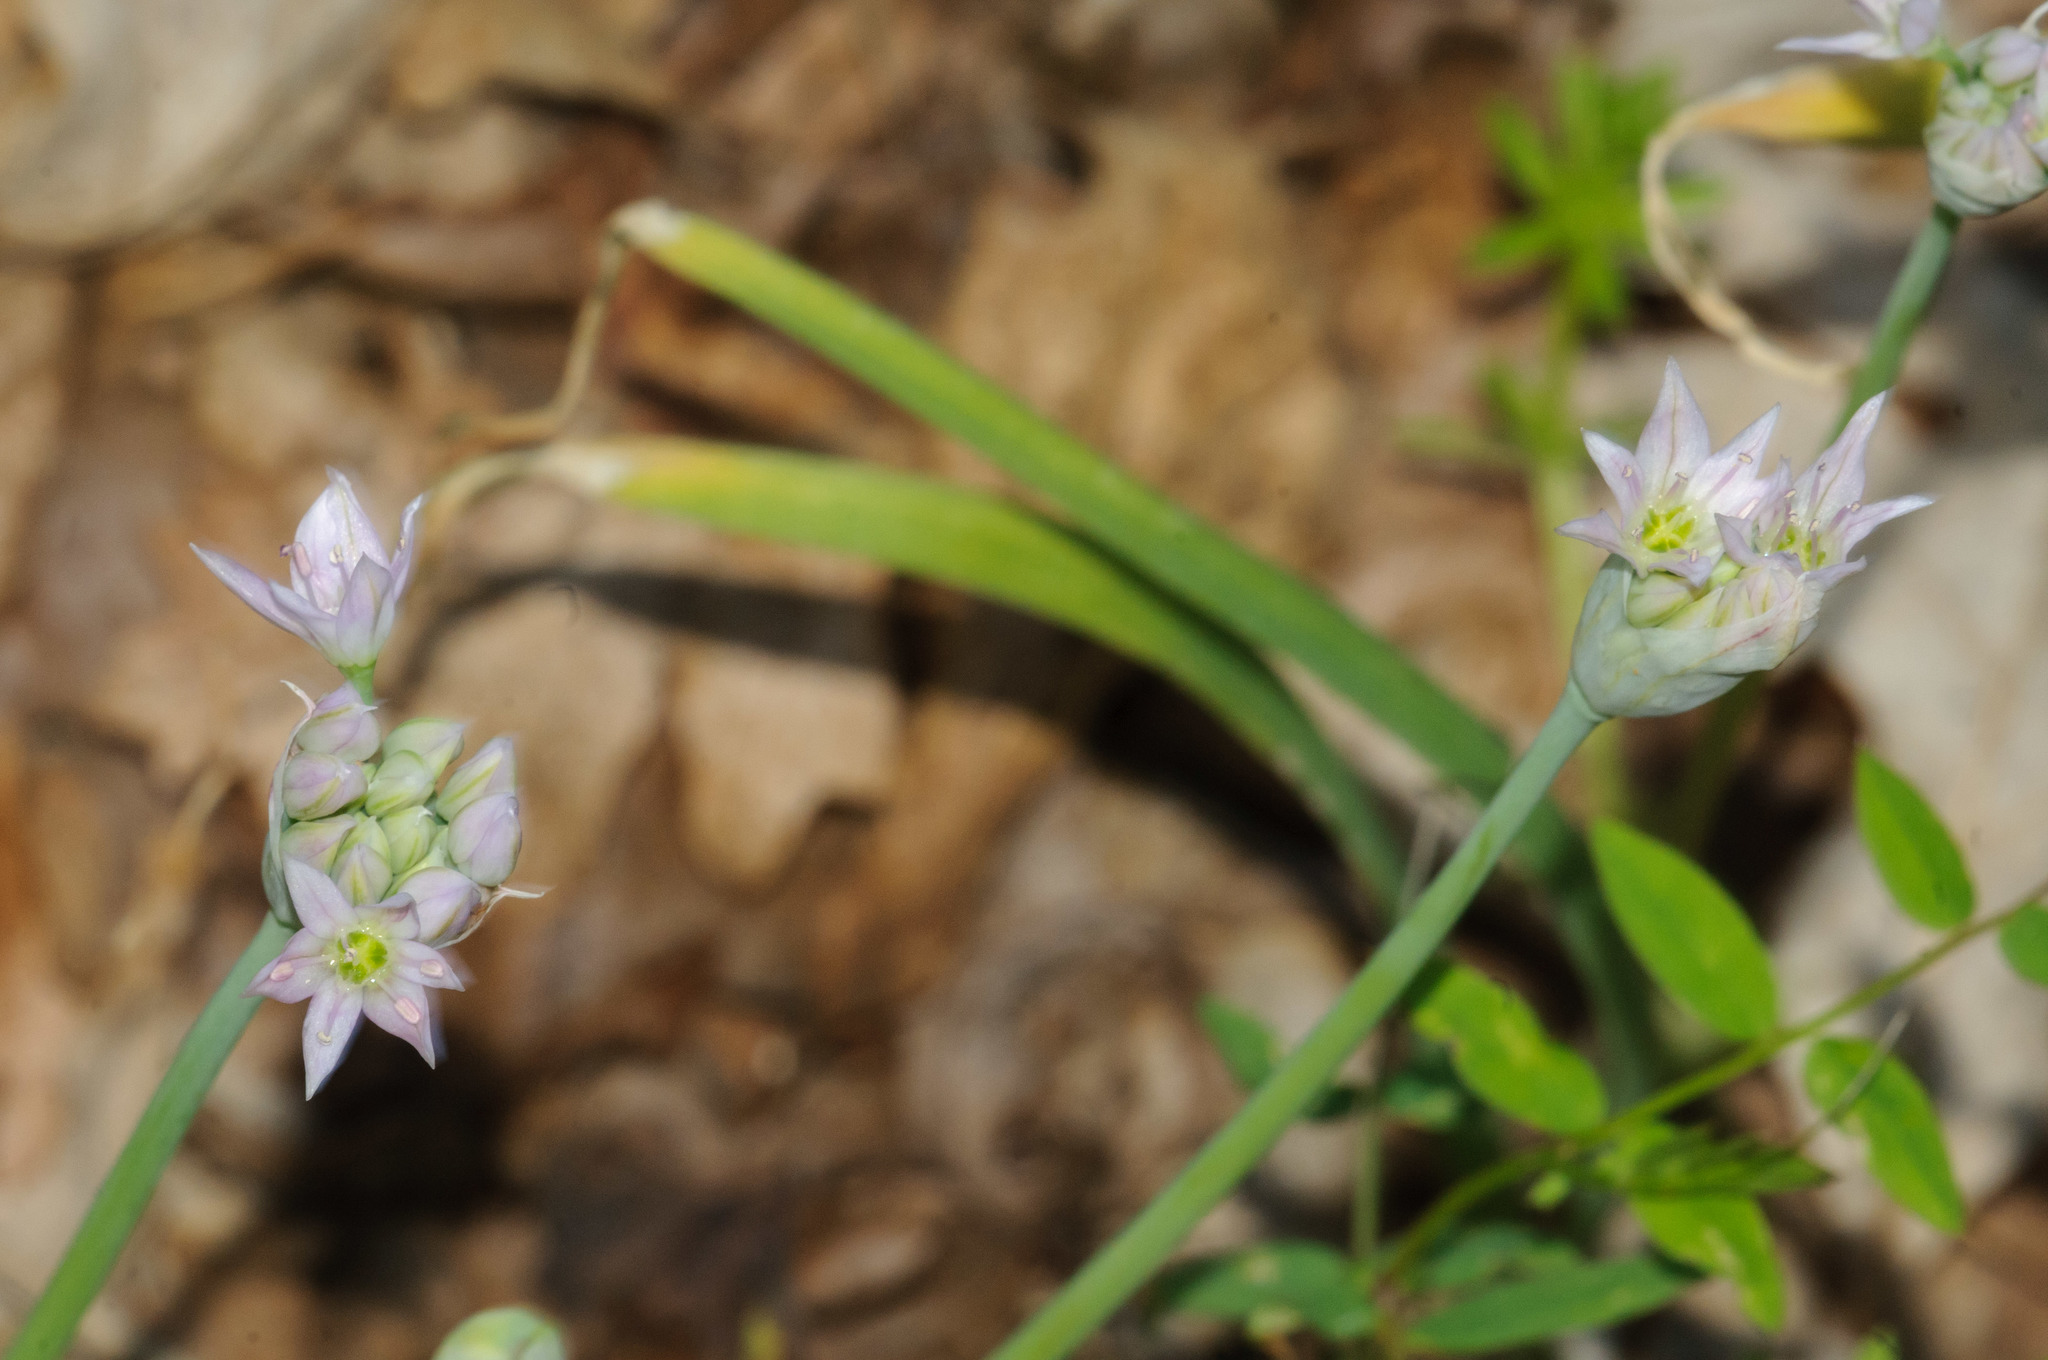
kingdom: Plantae
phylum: Tracheophyta
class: Liliopsida
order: Asparagales
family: Amaryllidaceae
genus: Allium
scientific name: Allium bisceptrum
